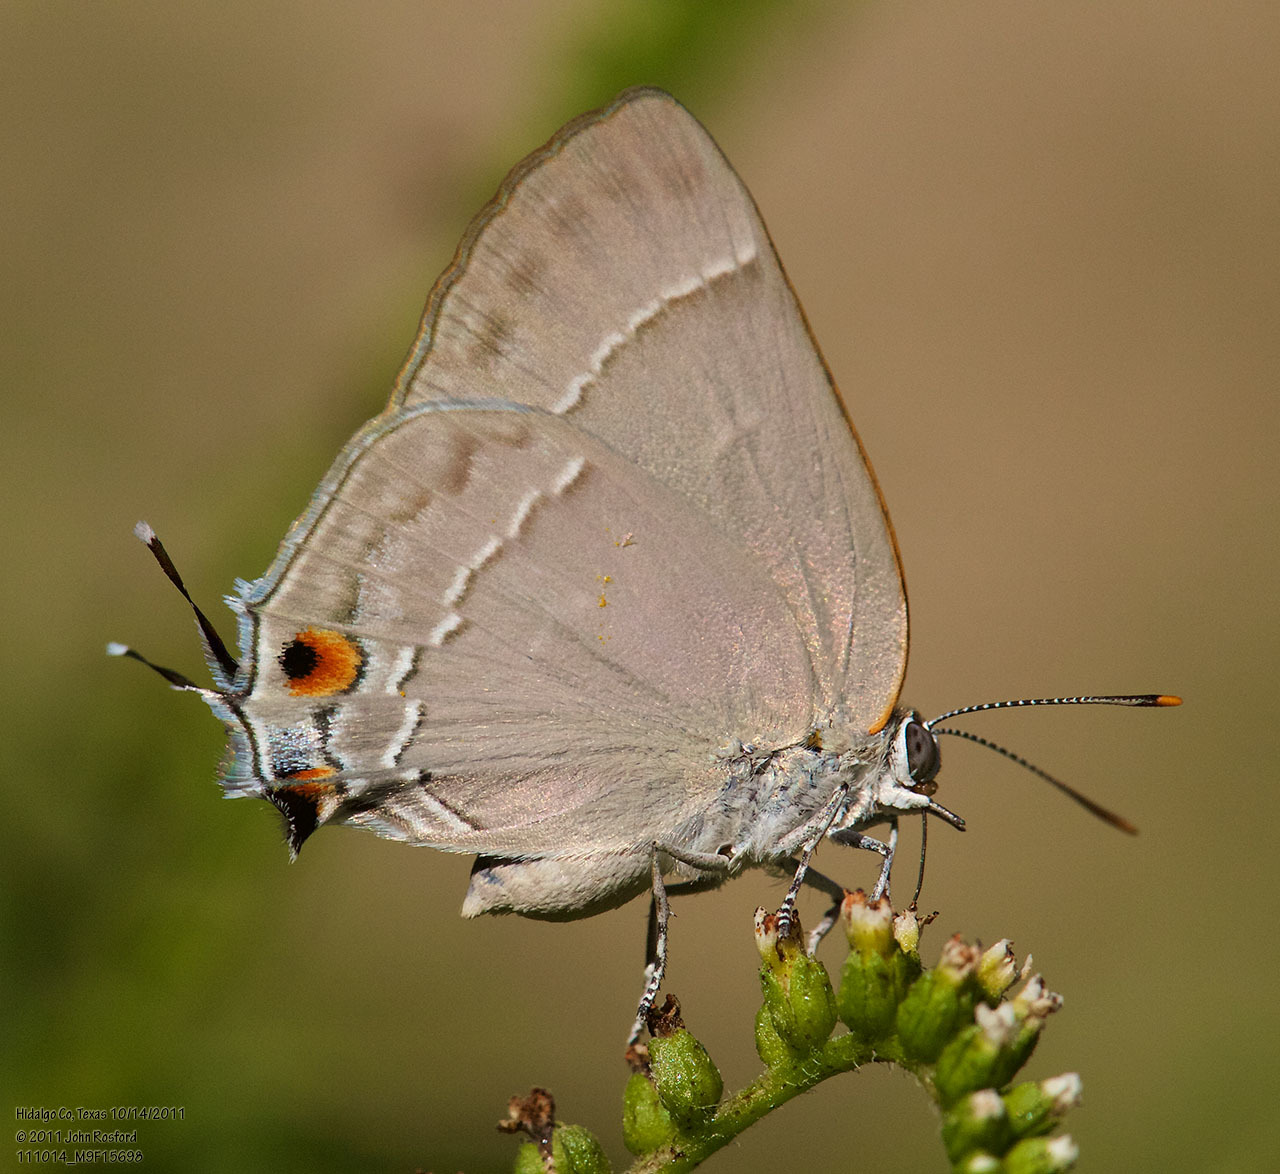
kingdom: Animalia
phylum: Arthropoda
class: Insecta
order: Lepidoptera
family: Lycaenidae
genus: Thecla
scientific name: Thecla marius
